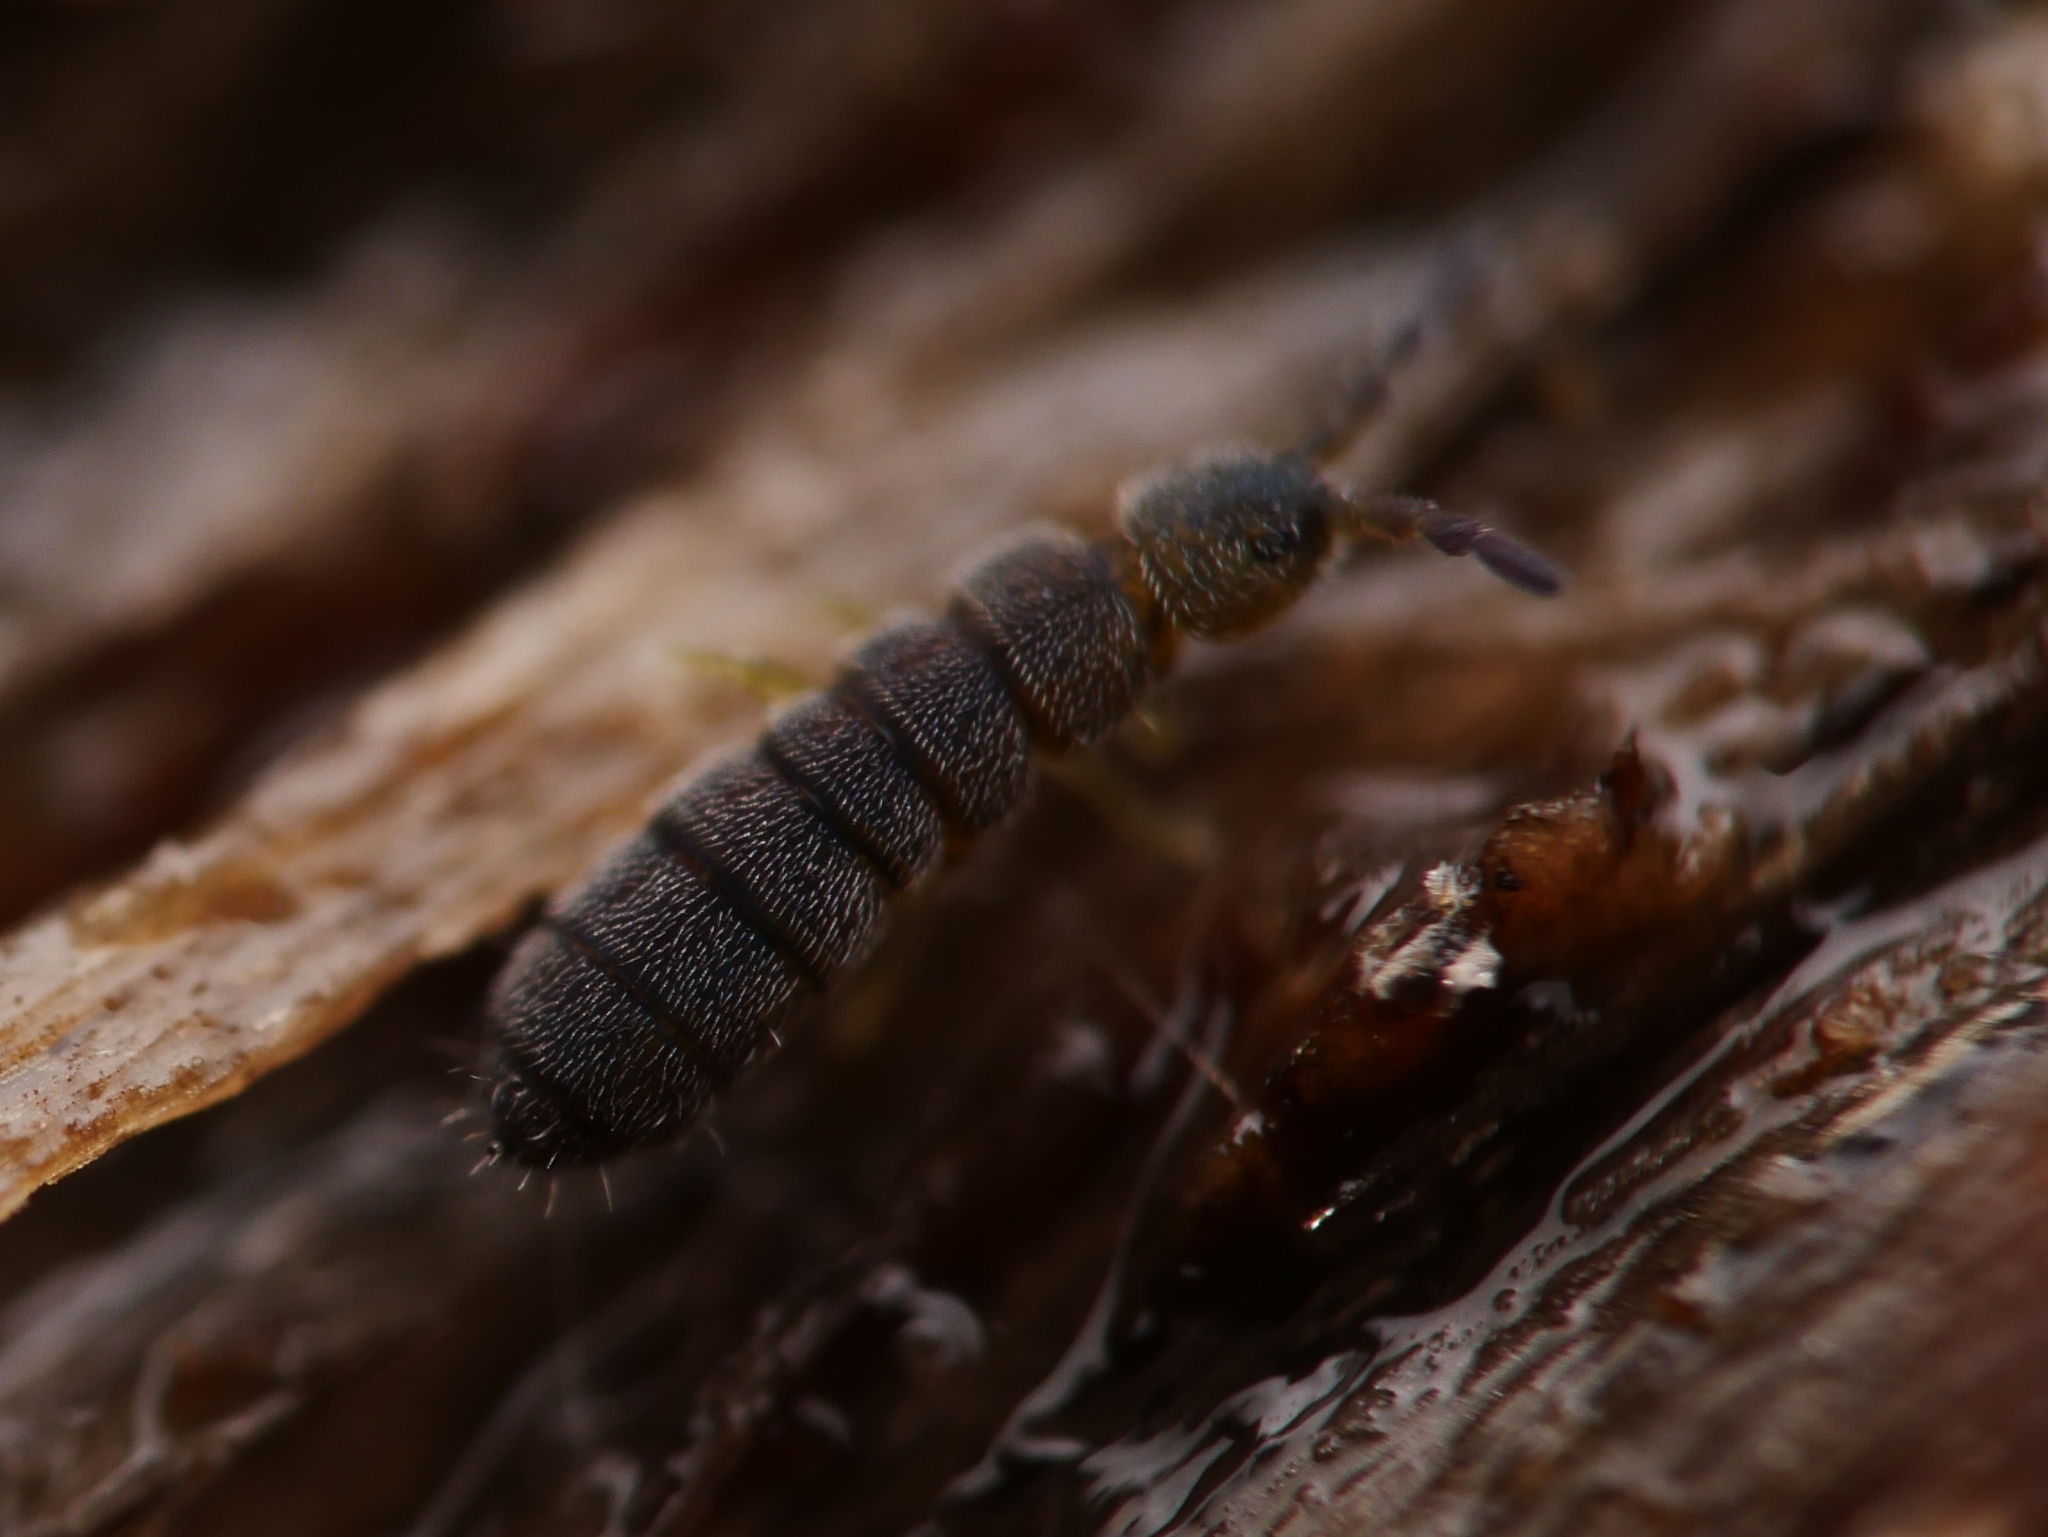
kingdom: Animalia
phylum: Arthropoda
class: Collembola
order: Entomobryomorpha
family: Isotomidae
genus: Vertagopus
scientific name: Vertagopus asiaticus
